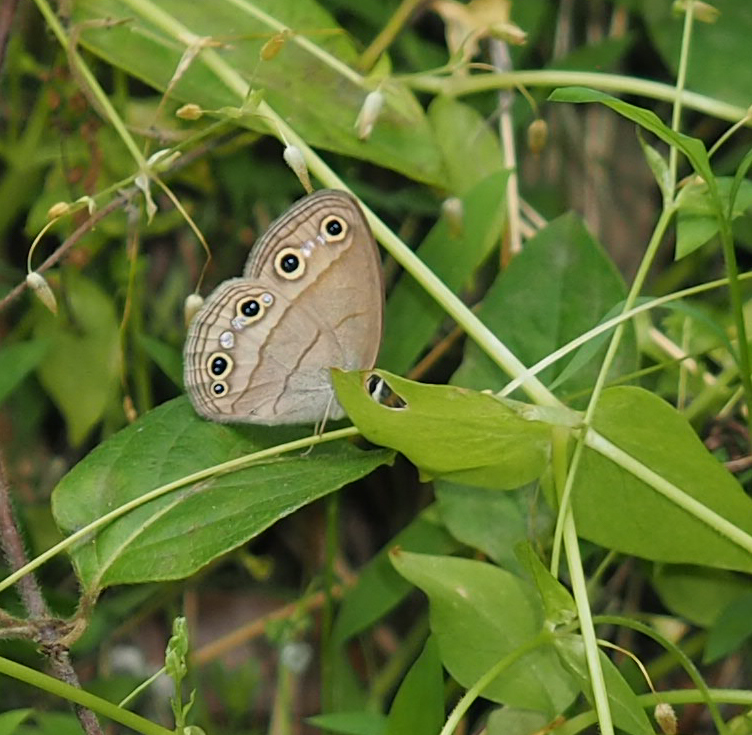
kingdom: Animalia
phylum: Arthropoda
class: Insecta
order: Lepidoptera
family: Nymphalidae
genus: Euptychia
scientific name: Euptychia cymela
